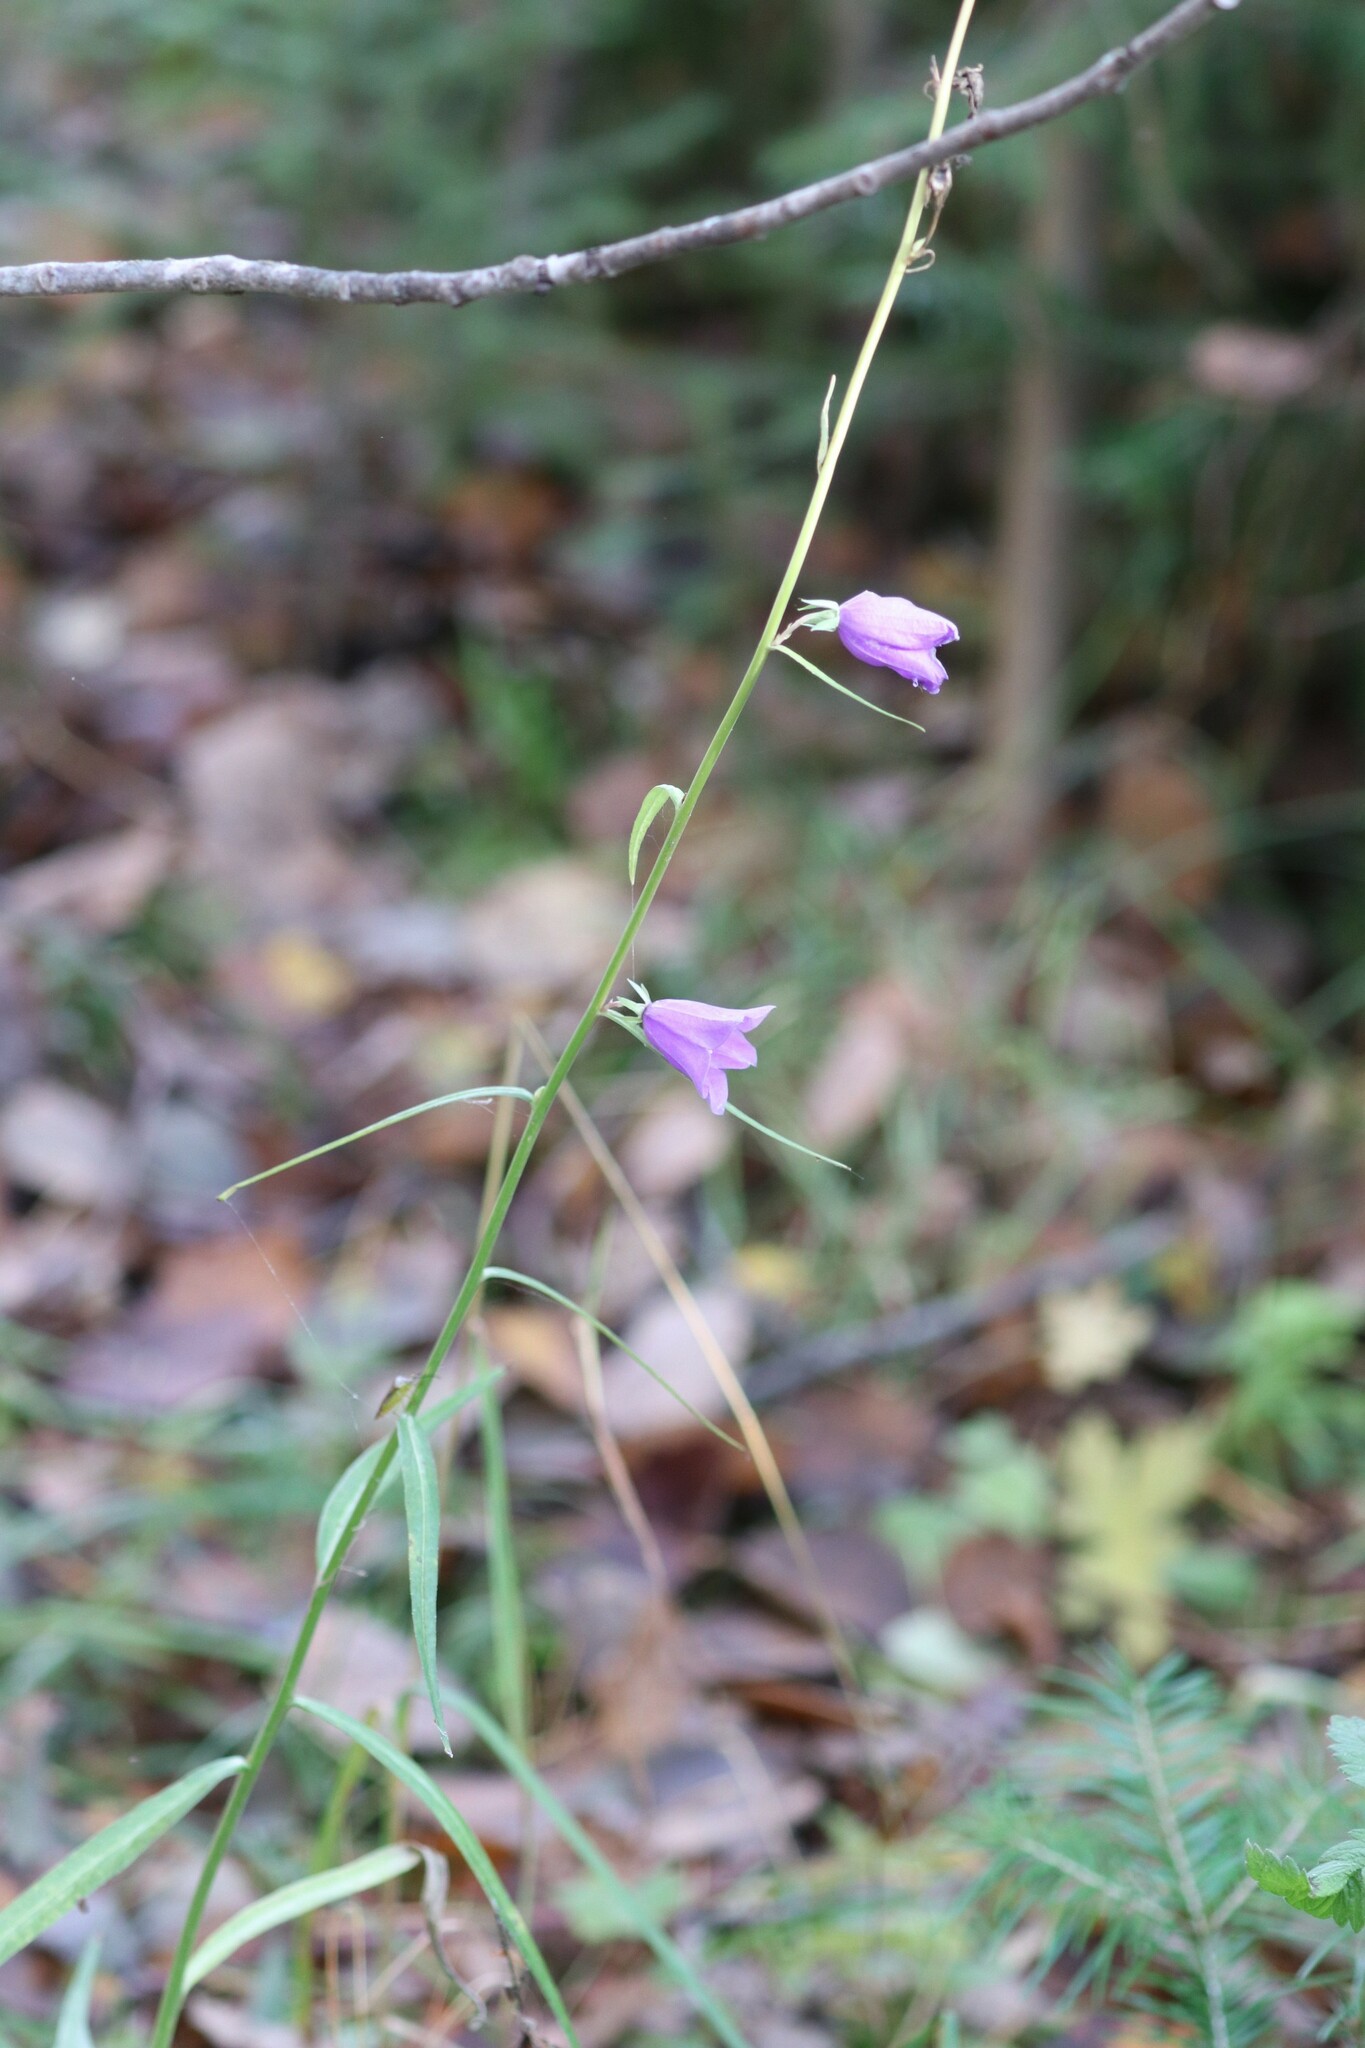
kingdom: Plantae
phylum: Tracheophyta
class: Magnoliopsida
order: Asterales
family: Campanulaceae
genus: Campanula
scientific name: Campanula persicifolia
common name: Peach-leaved bellflower
